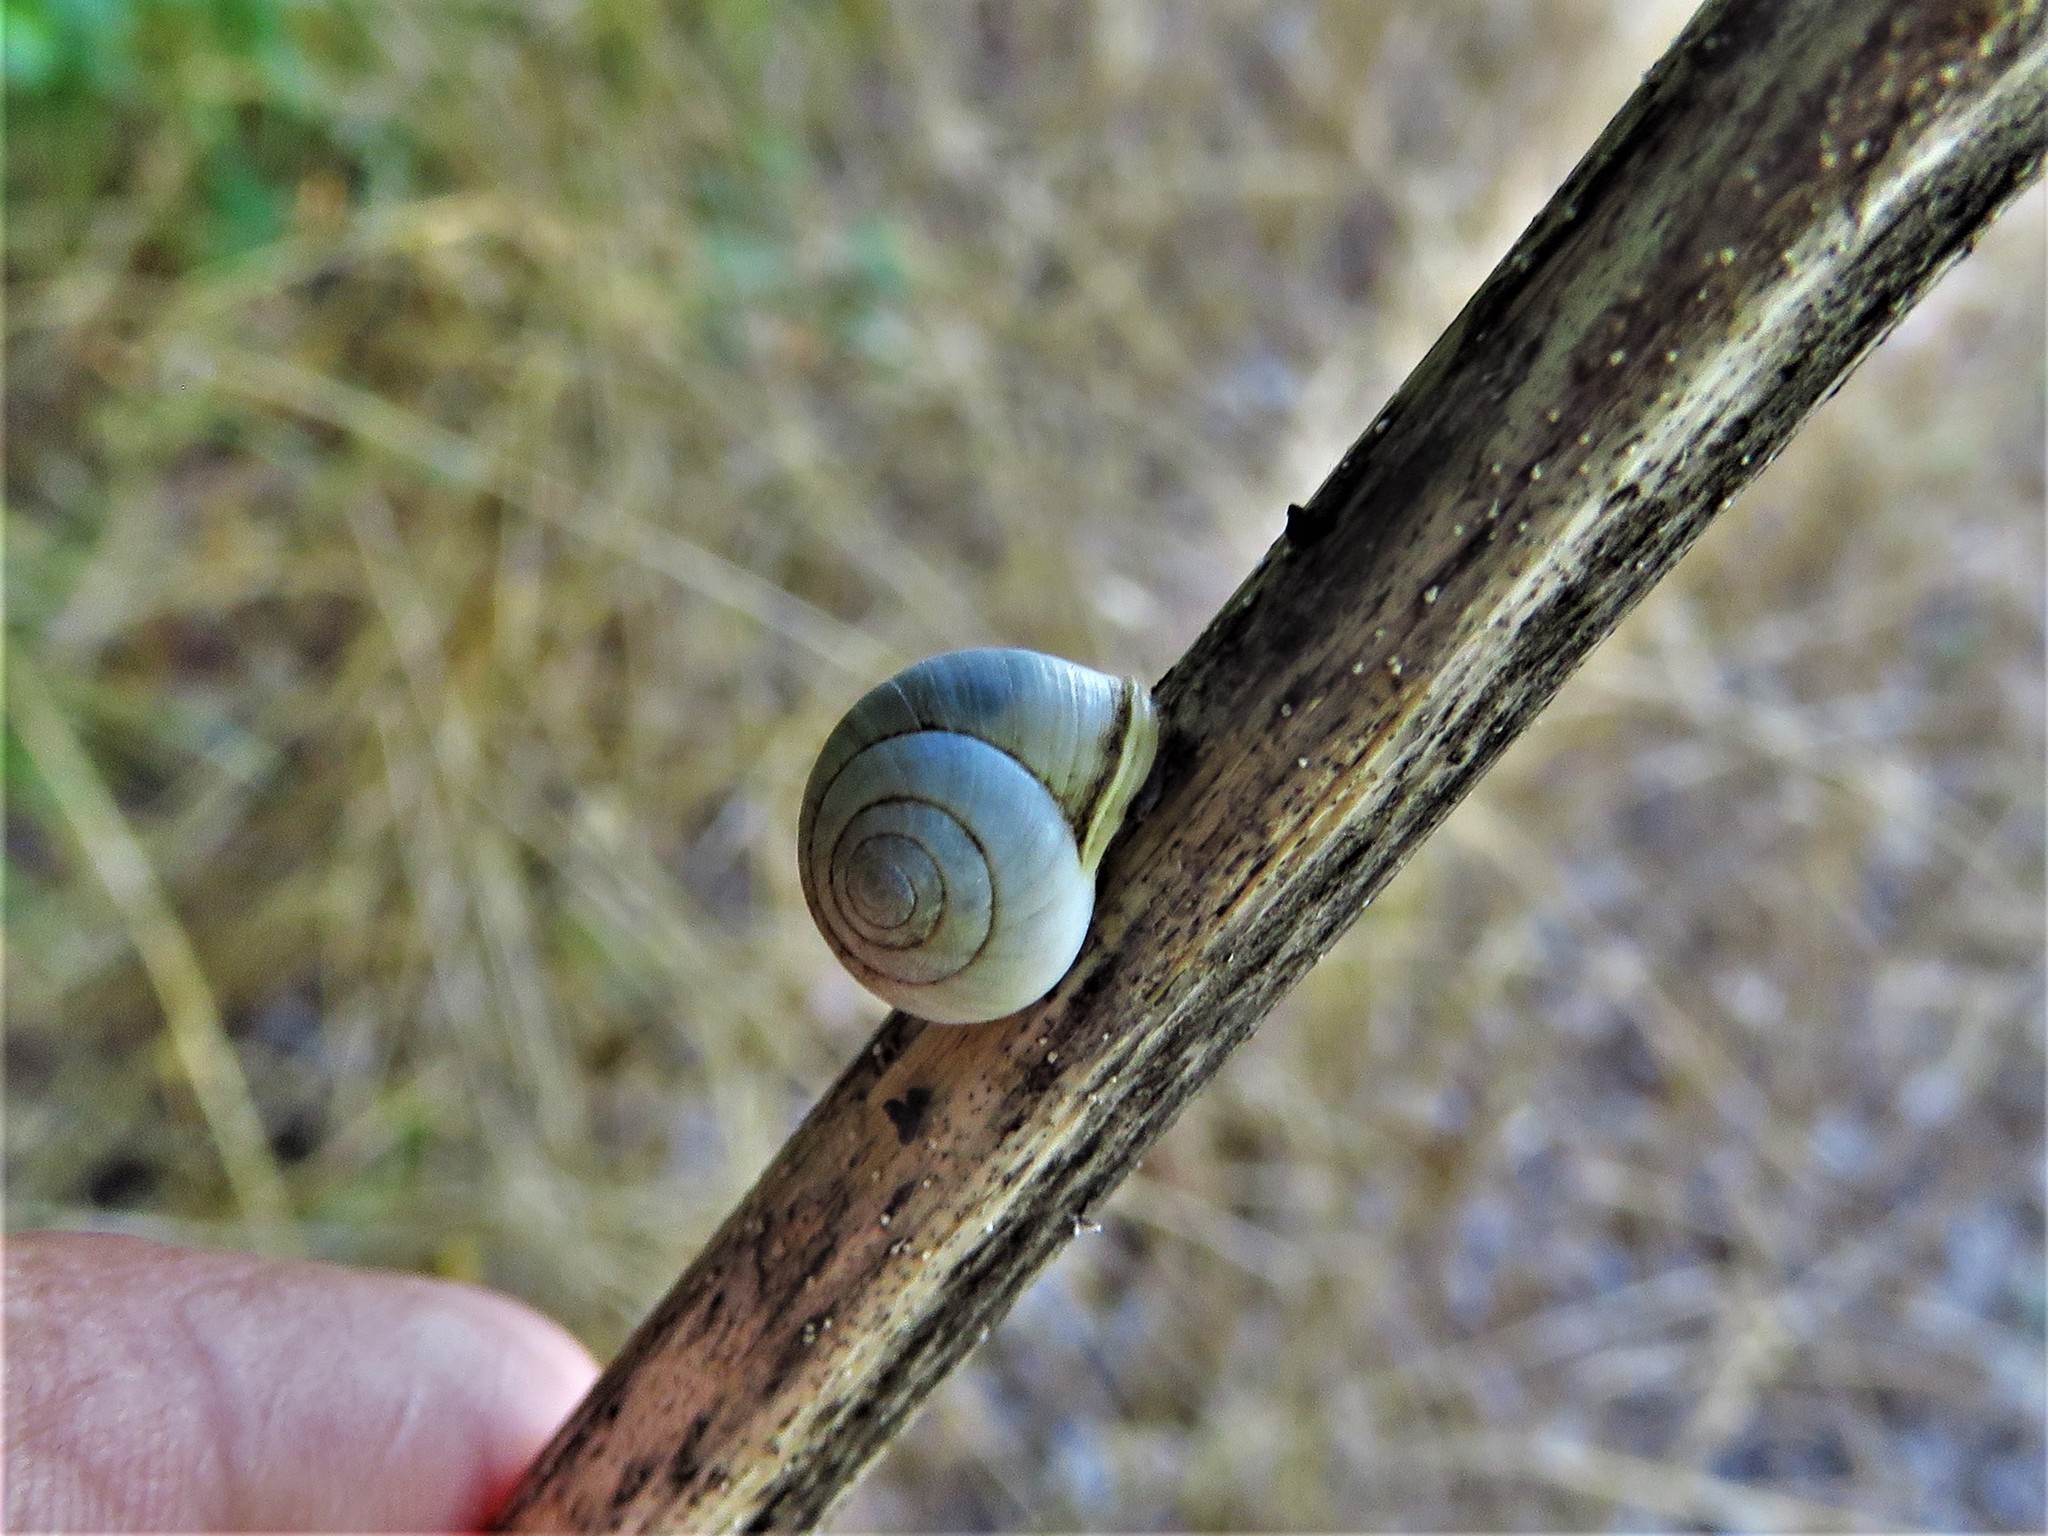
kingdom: Animalia
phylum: Mollusca
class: Gastropoda
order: Cycloneritida
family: Helicinidae
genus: Helicina
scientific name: Helicina orbiculata
